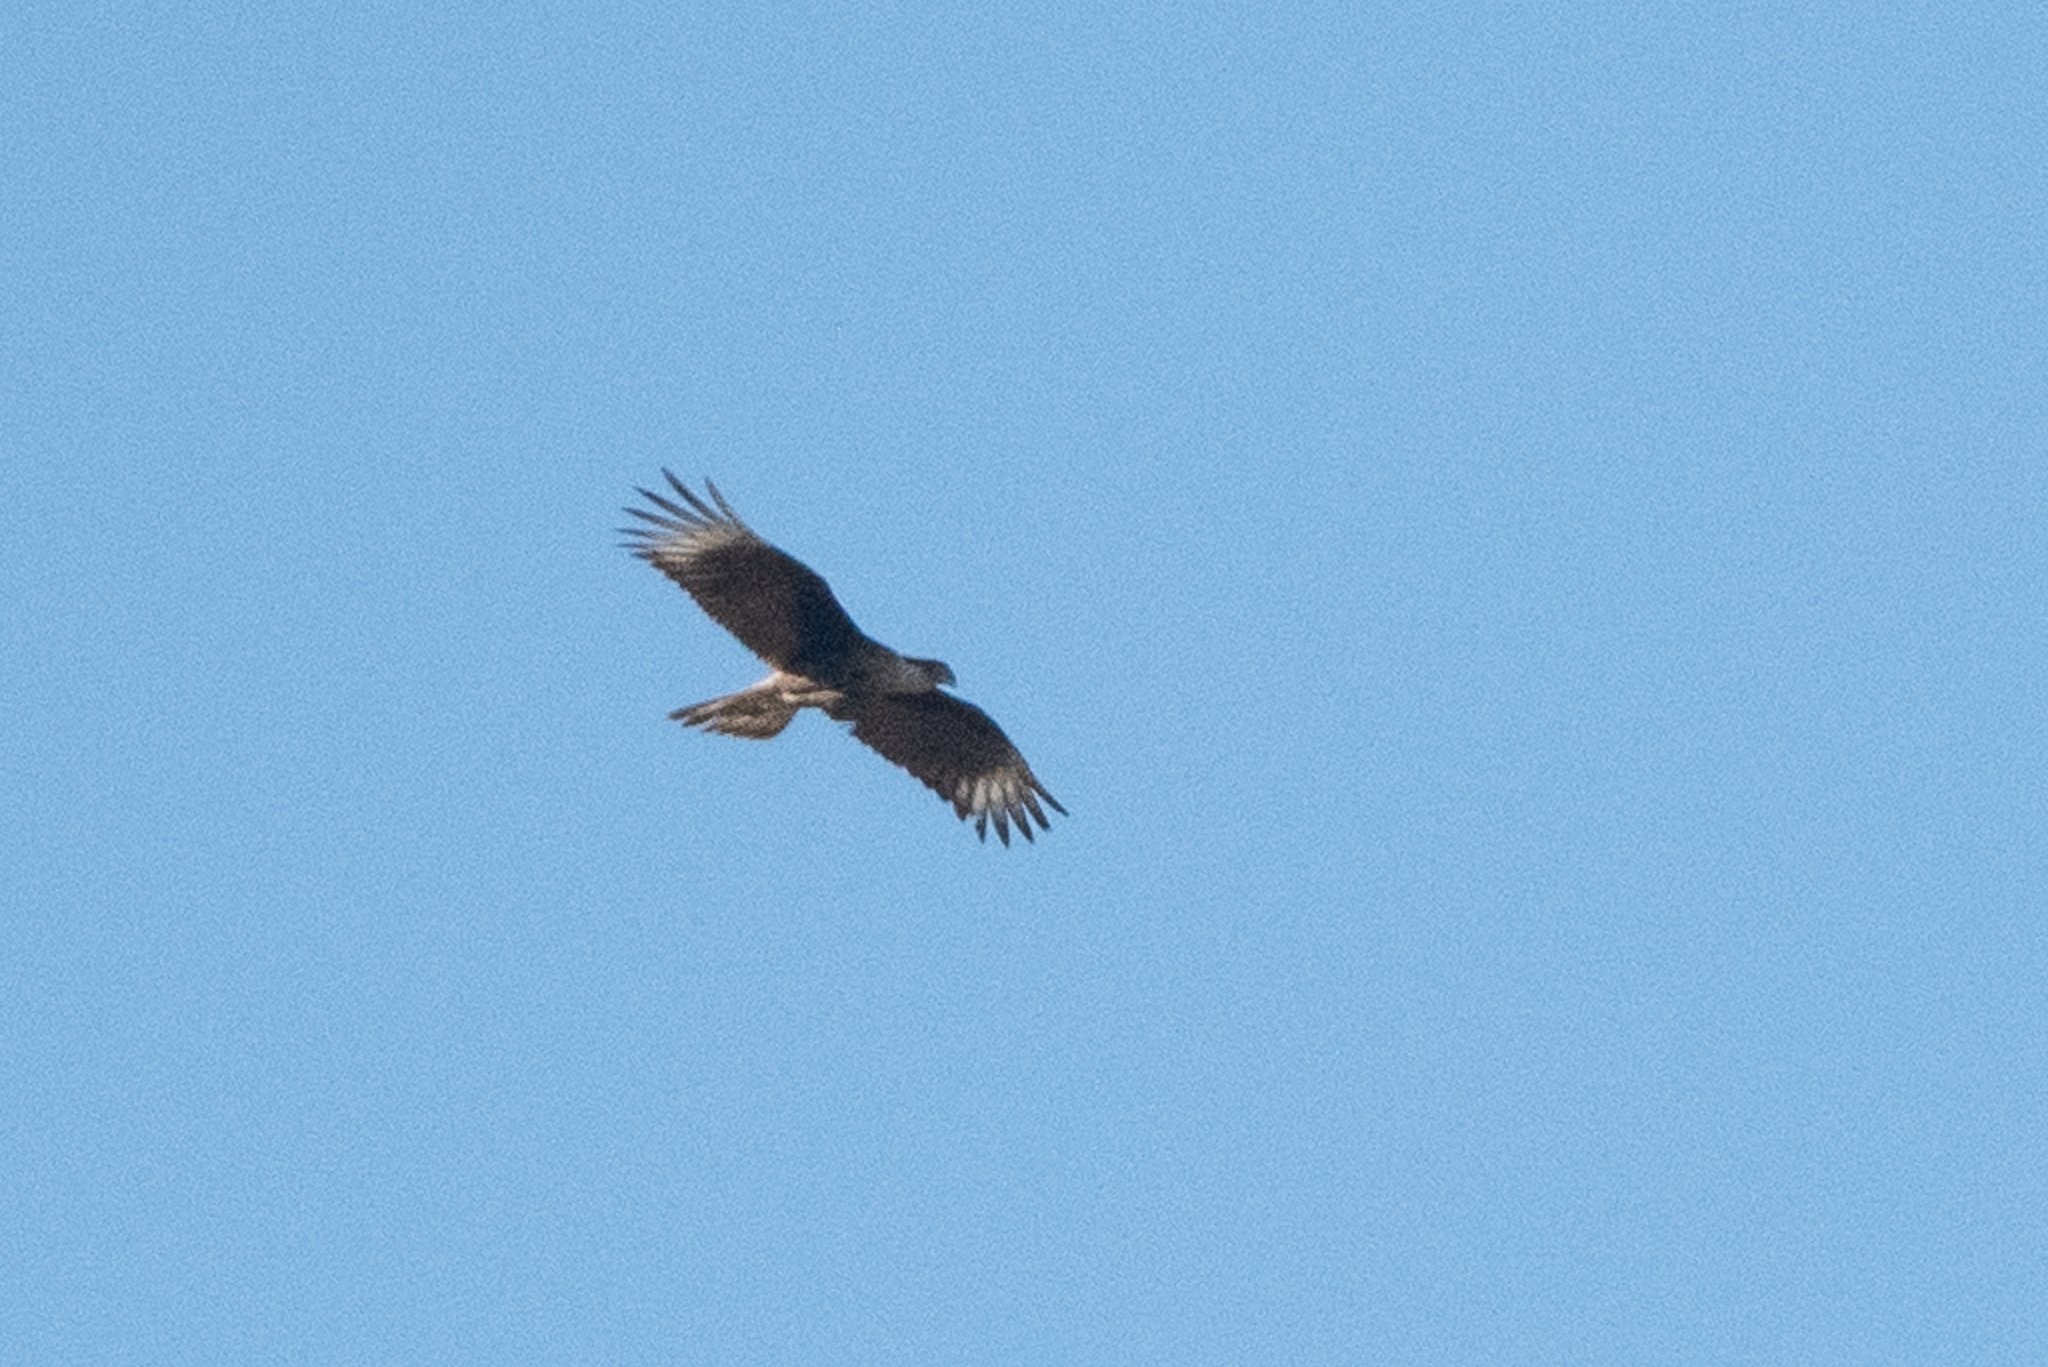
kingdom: Animalia
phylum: Chordata
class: Aves
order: Falconiformes
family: Falconidae
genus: Caracara
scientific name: Caracara plancus
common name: Southern caracara
